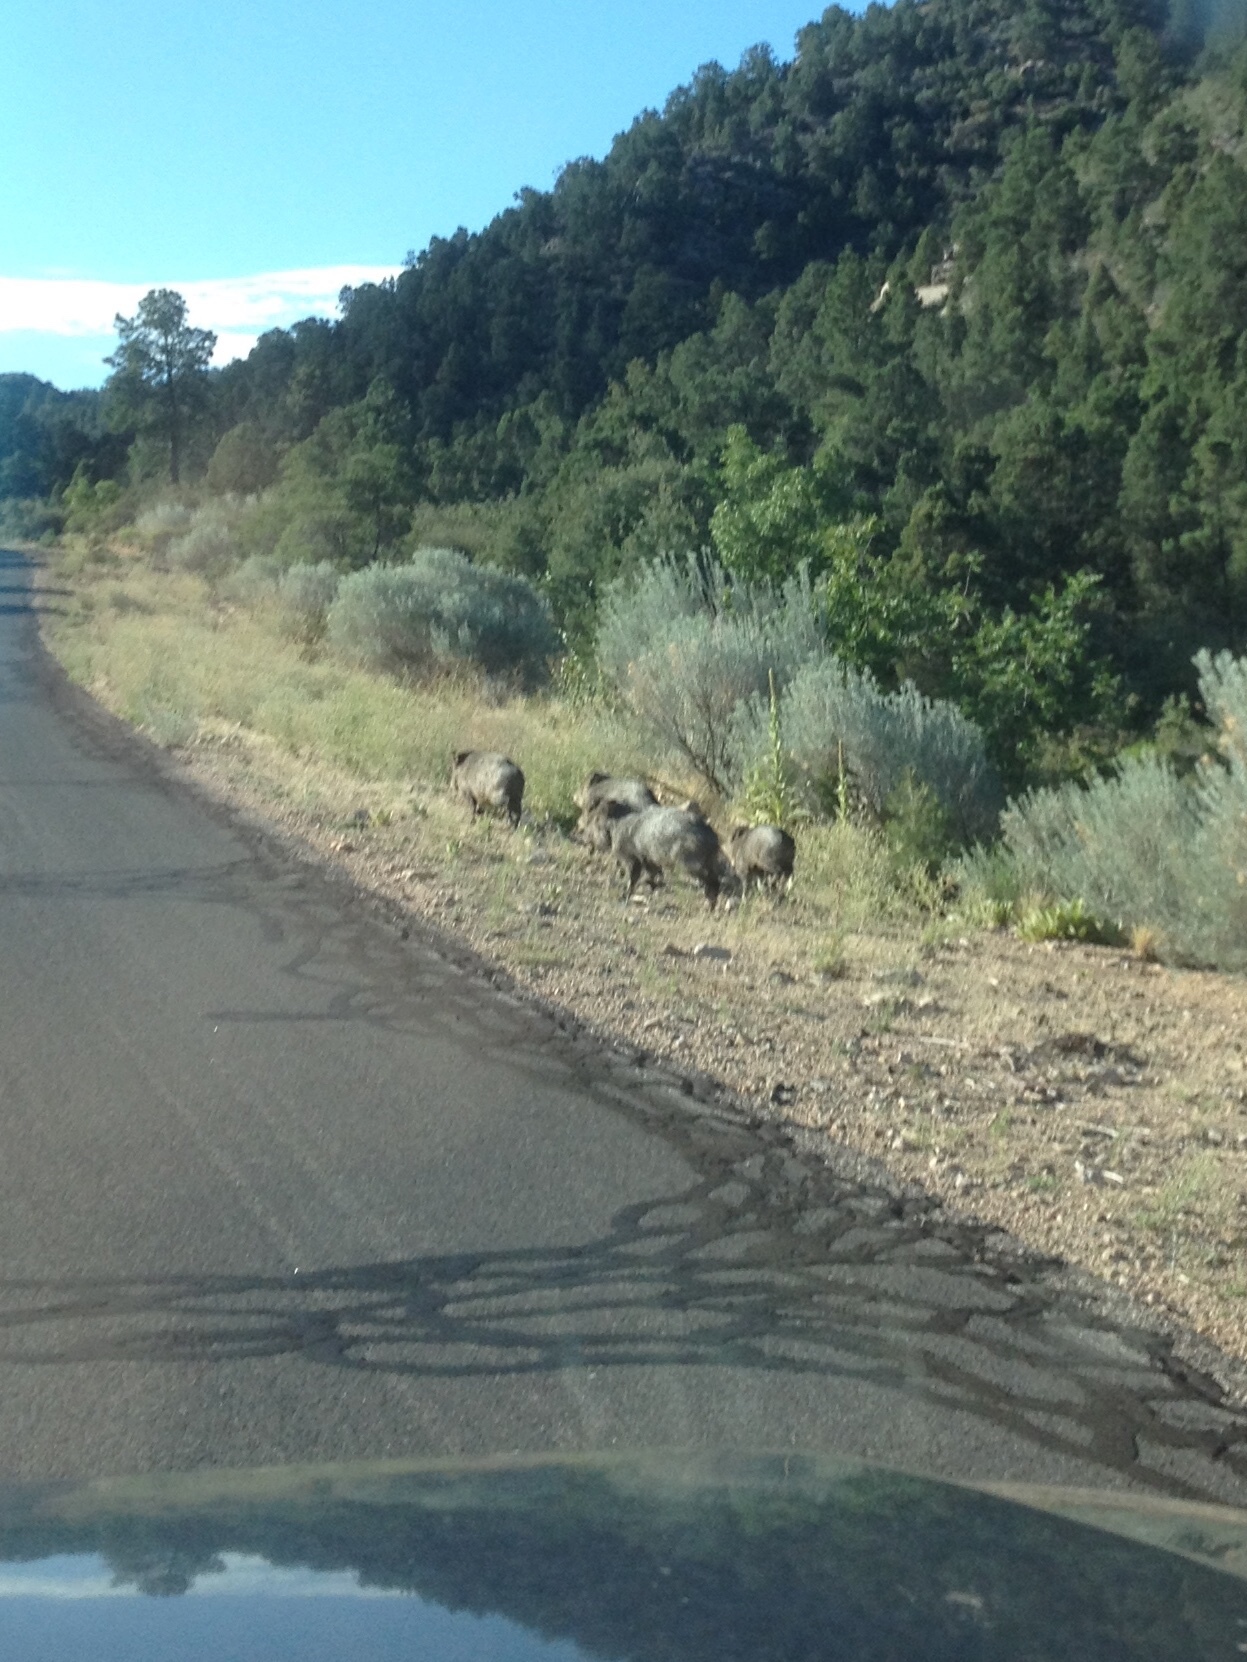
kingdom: Animalia
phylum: Chordata
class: Mammalia
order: Artiodactyla
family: Tayassuidae
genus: Pecari
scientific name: Pecari tajacu
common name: Collared peccary
